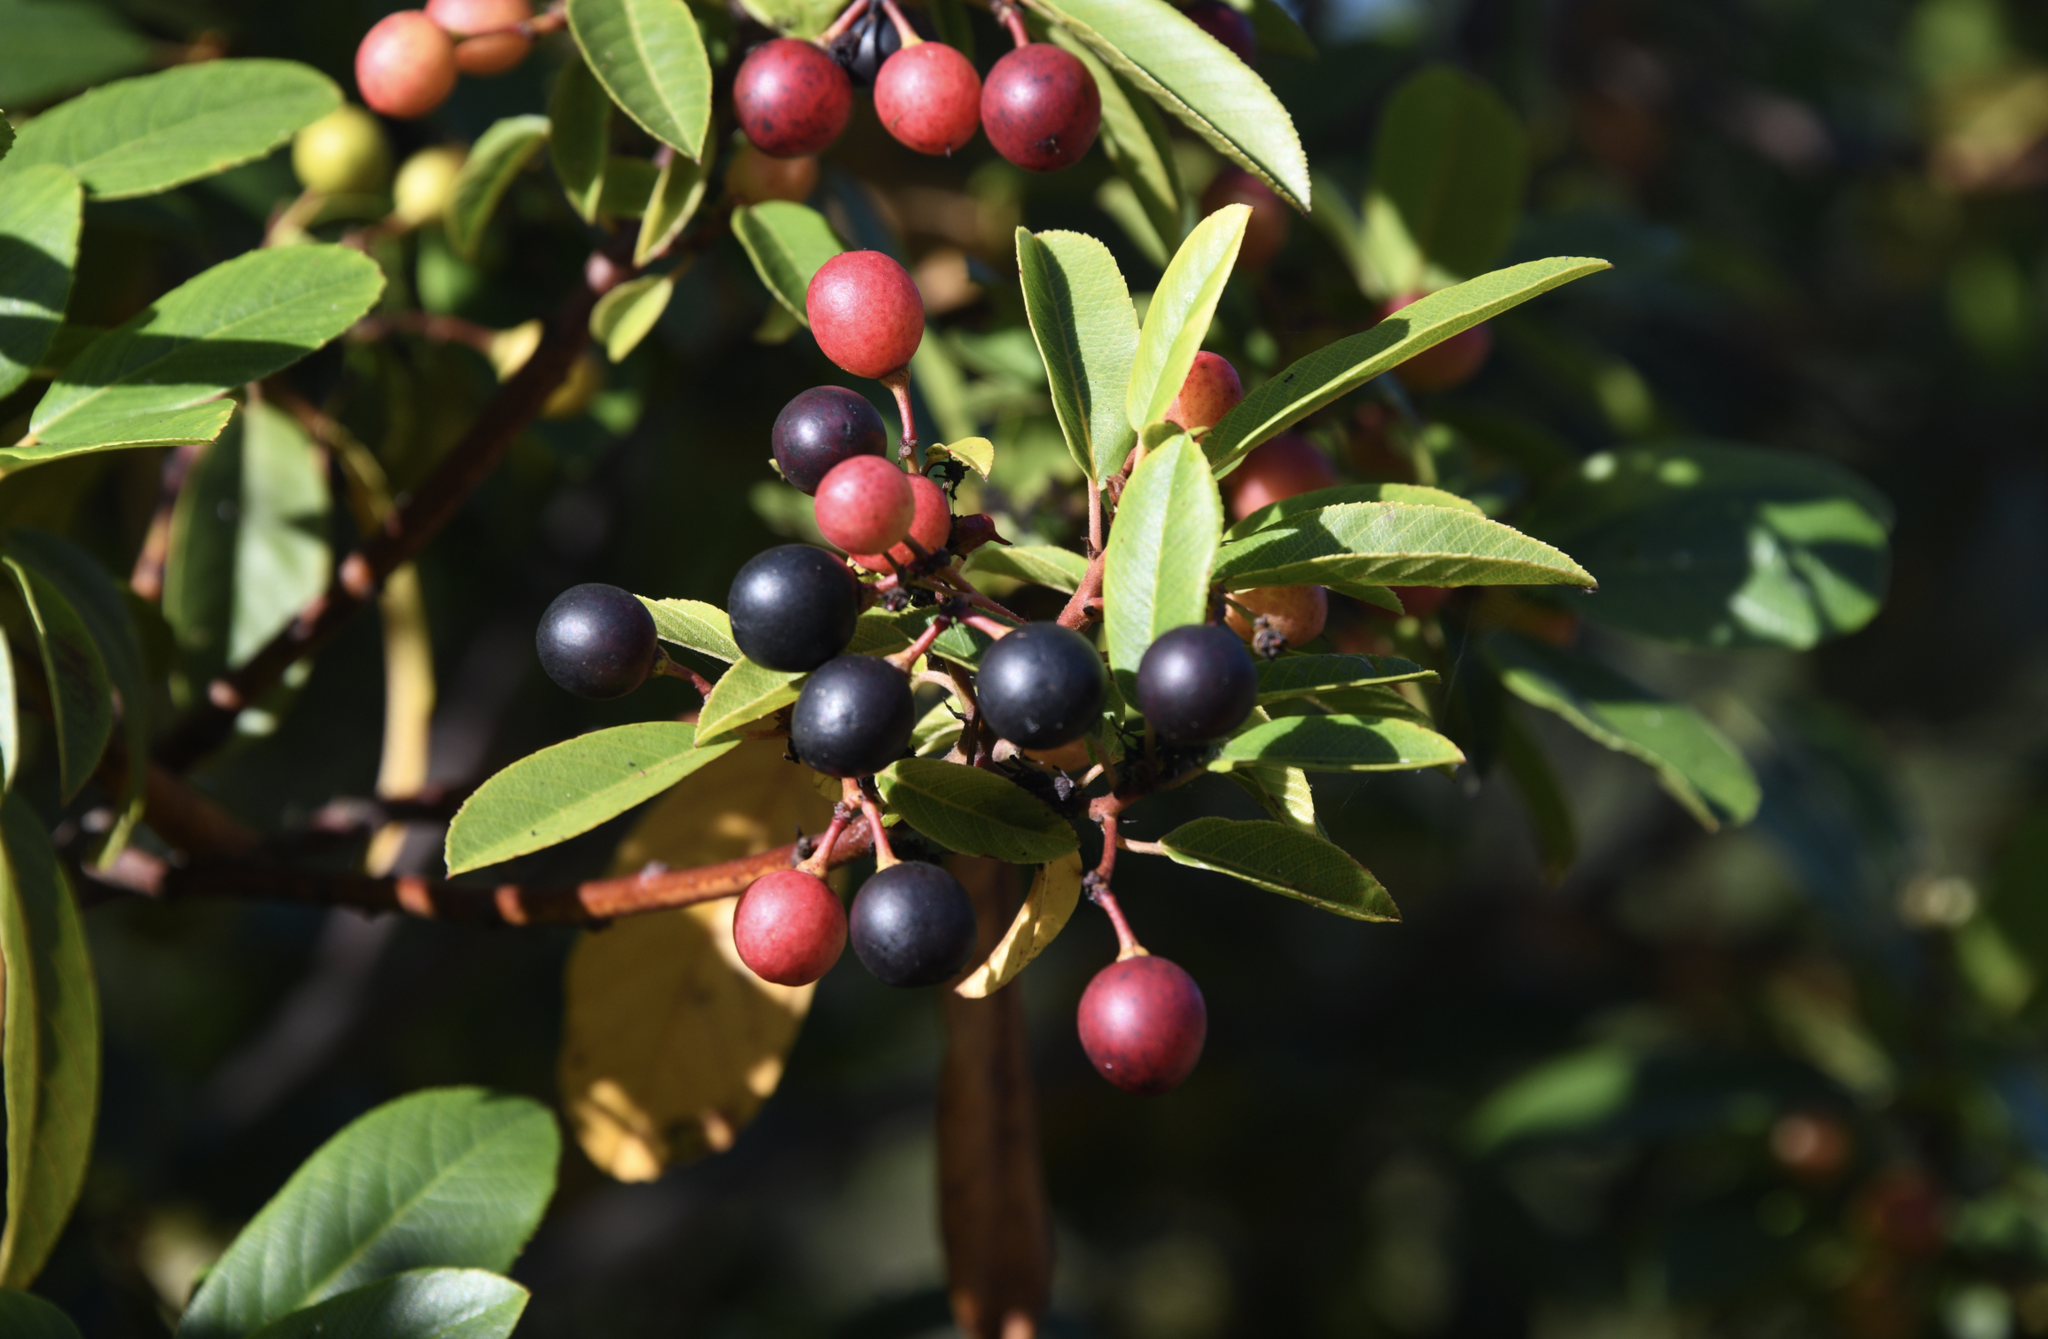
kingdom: Plantae
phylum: Tracheophyta
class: Magnoliopsida
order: Rosales
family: Rhamnaceae
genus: Frangula
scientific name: Frangula californica
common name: California buckthorn
